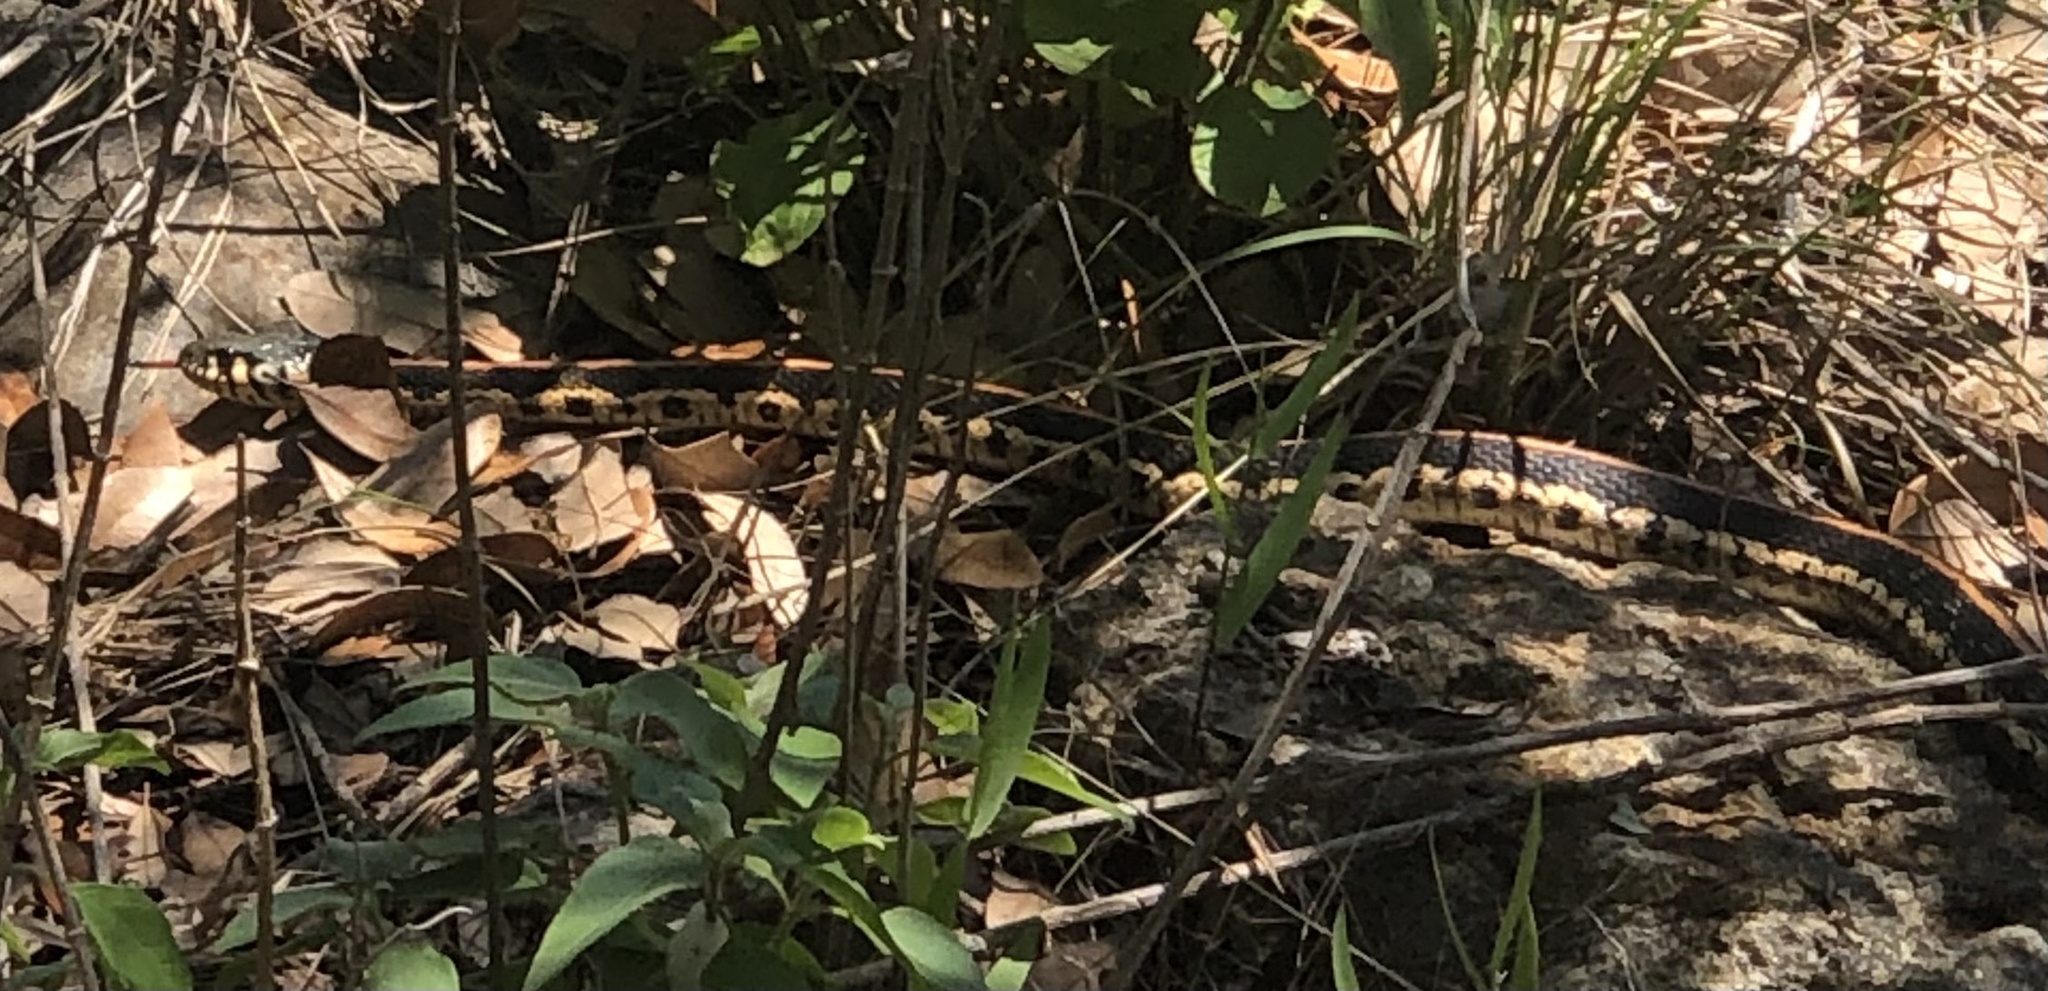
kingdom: Animalia
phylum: Chordata
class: Squamata
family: Colubridae
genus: Thamnophis
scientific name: Thamnophis cyrtopsis
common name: Black-necked gartersnake
